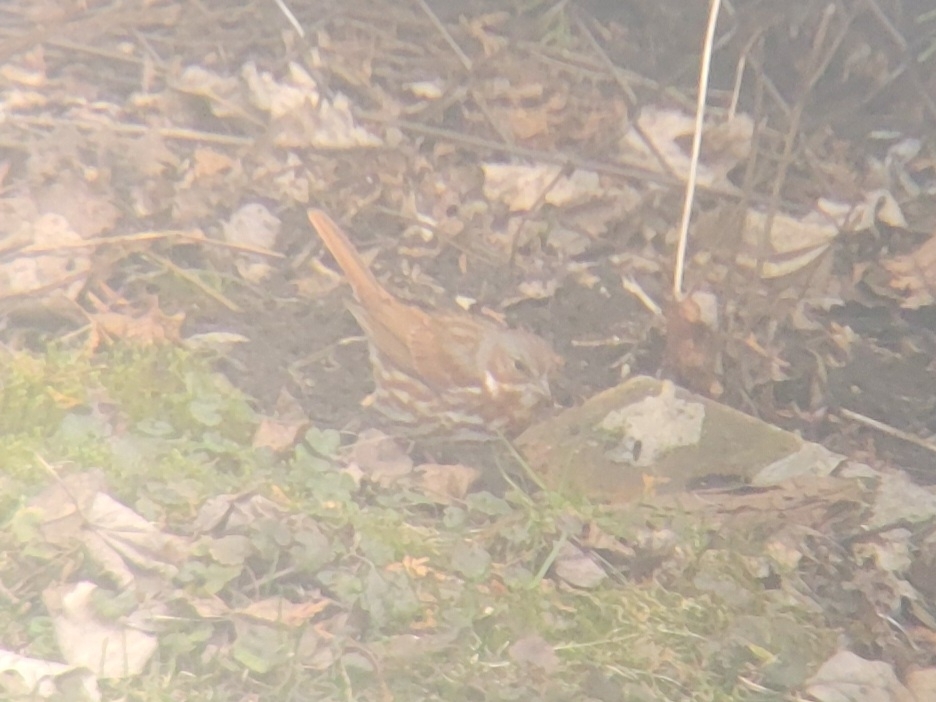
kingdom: Animalia
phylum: Chordata
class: Aves
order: Passeriformes
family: Passerellidae
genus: Passerella
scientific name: Passerella iliaca
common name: Fox sparrow
